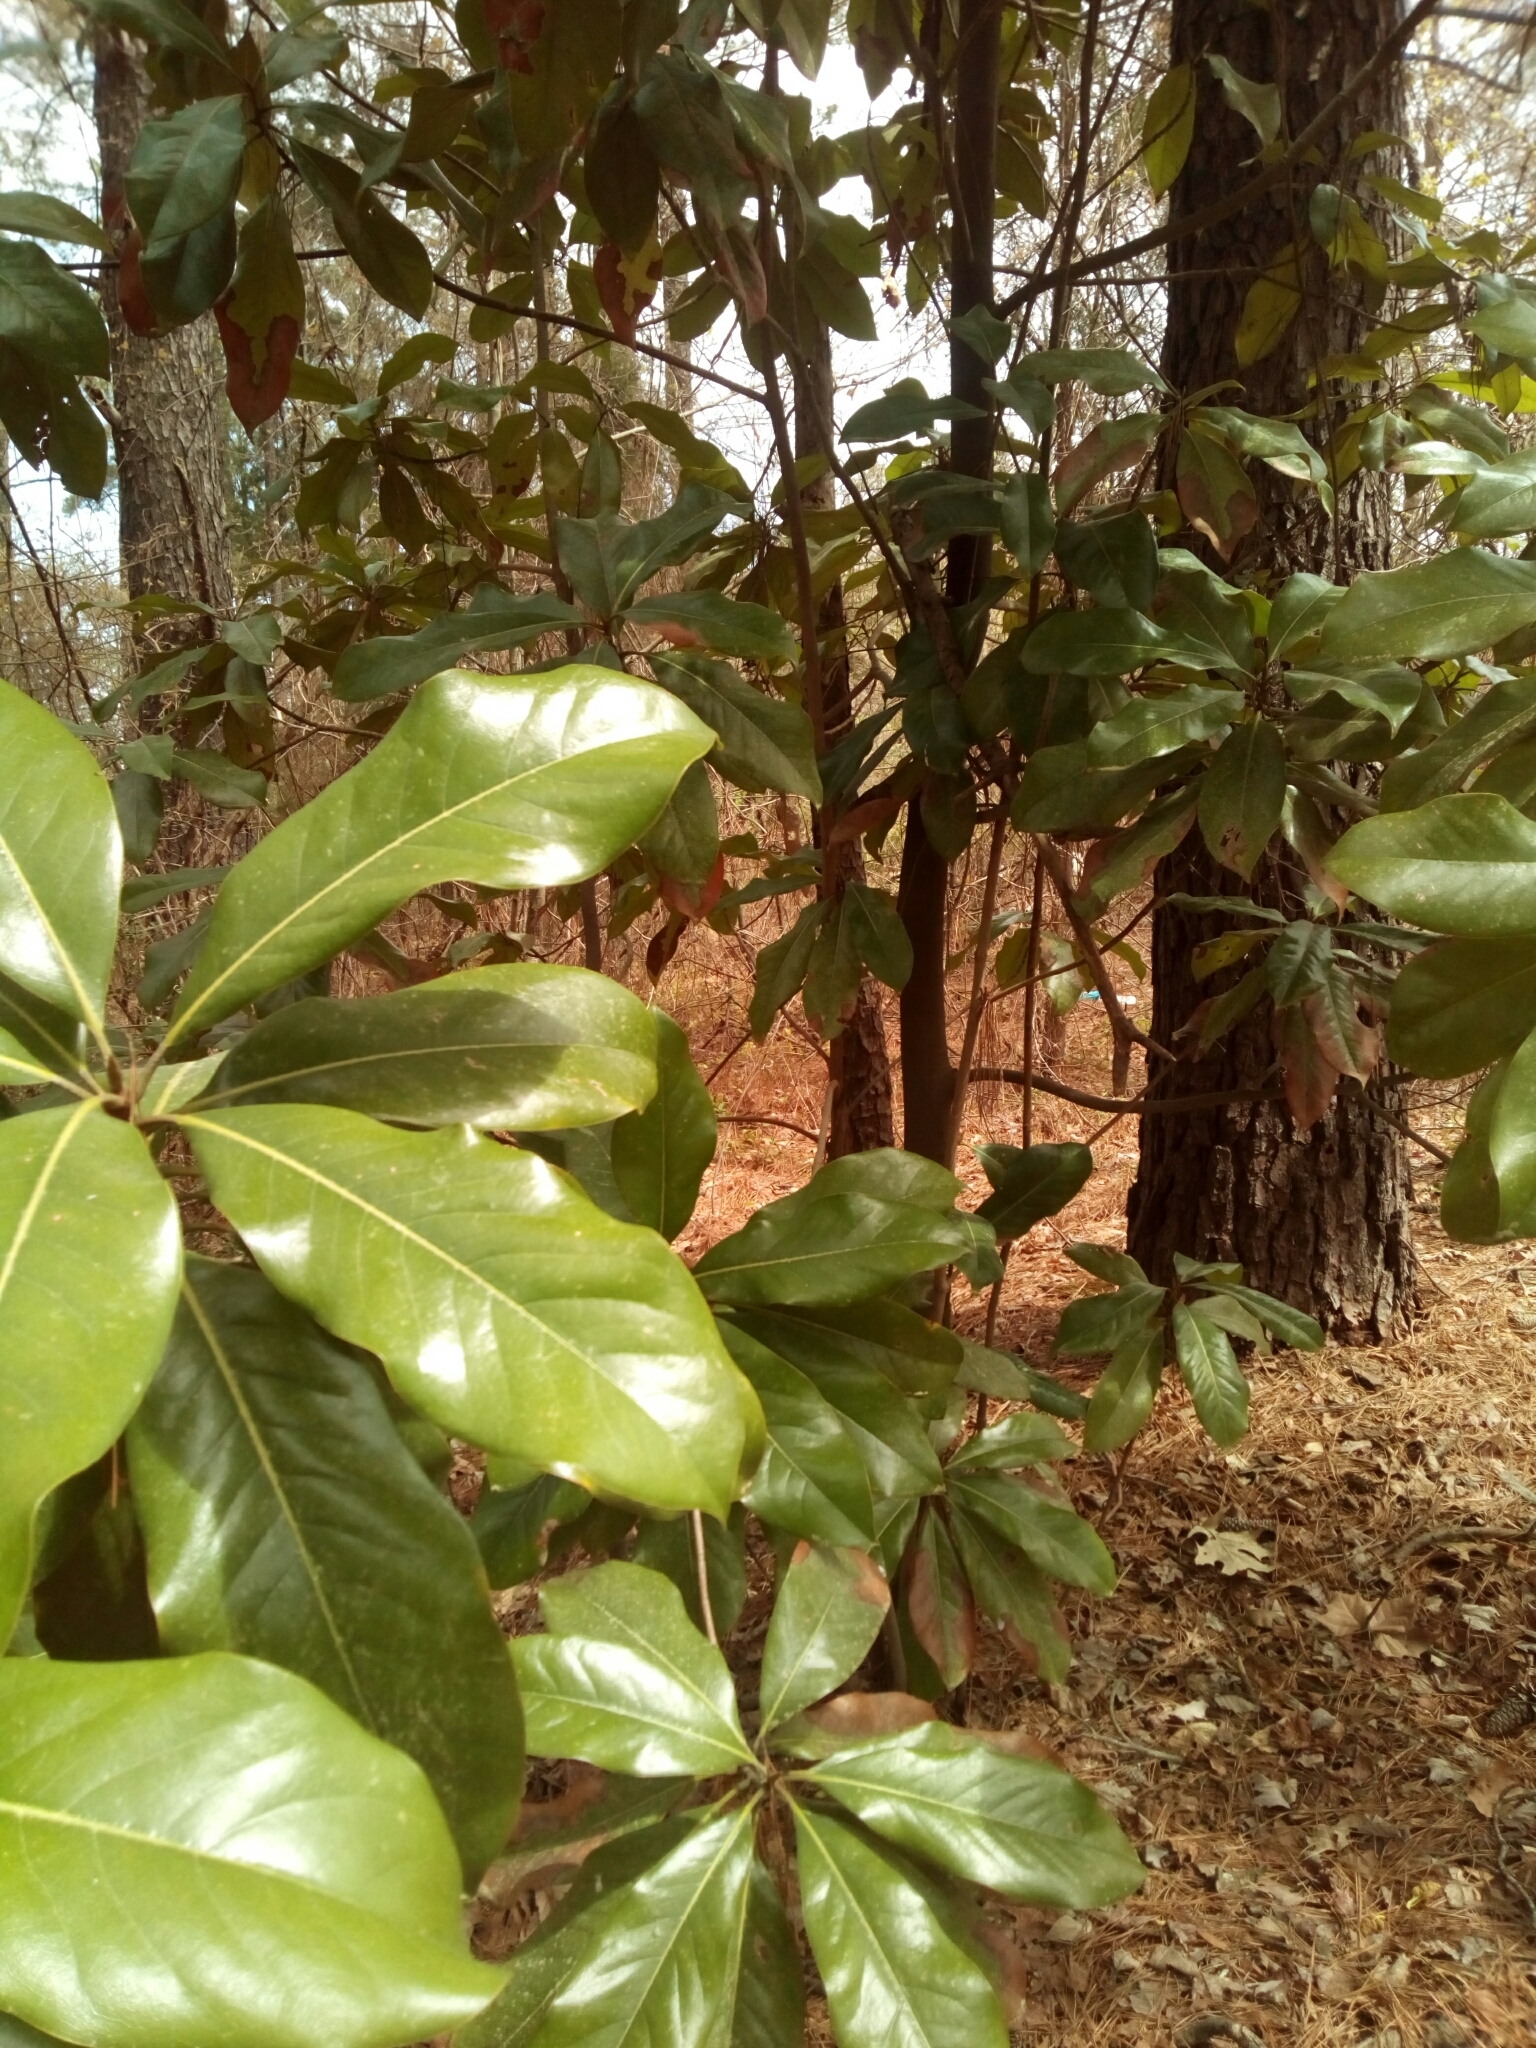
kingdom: Plantae
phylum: Tracheophyta
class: Magnoliopsida
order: Magnoliales
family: Magnoliaceae
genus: Magnolia
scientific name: Magnolia grandiflora
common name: Southern magnolia
